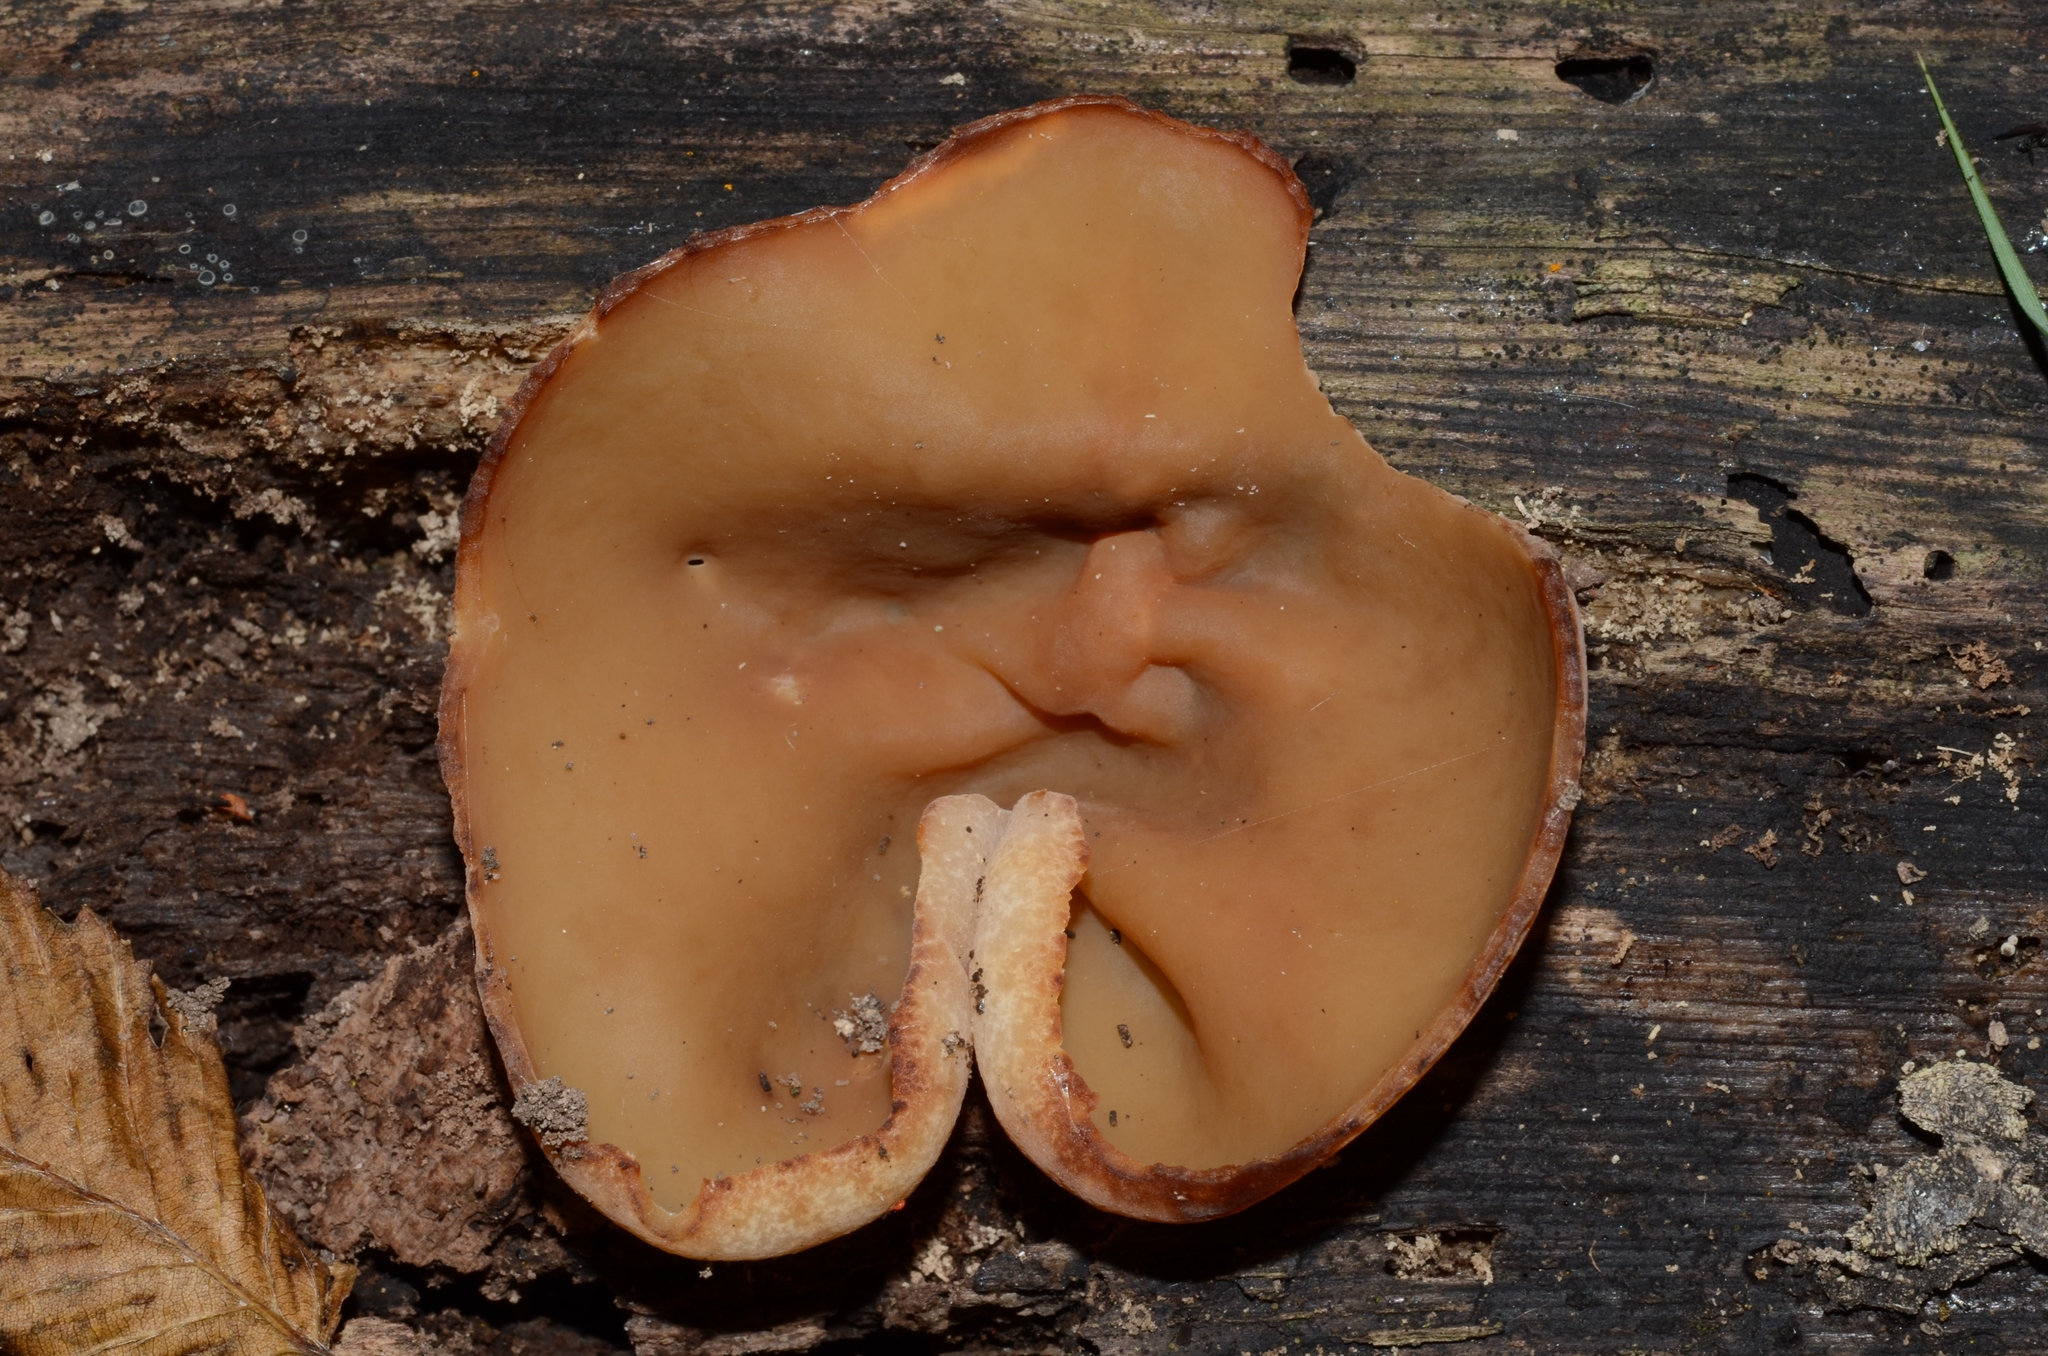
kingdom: Fungi
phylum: Ascomycota
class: Pezizomycetes
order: Pezizales
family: Pezizaceae
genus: Peziza
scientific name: Peziza varia
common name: Layered cup
